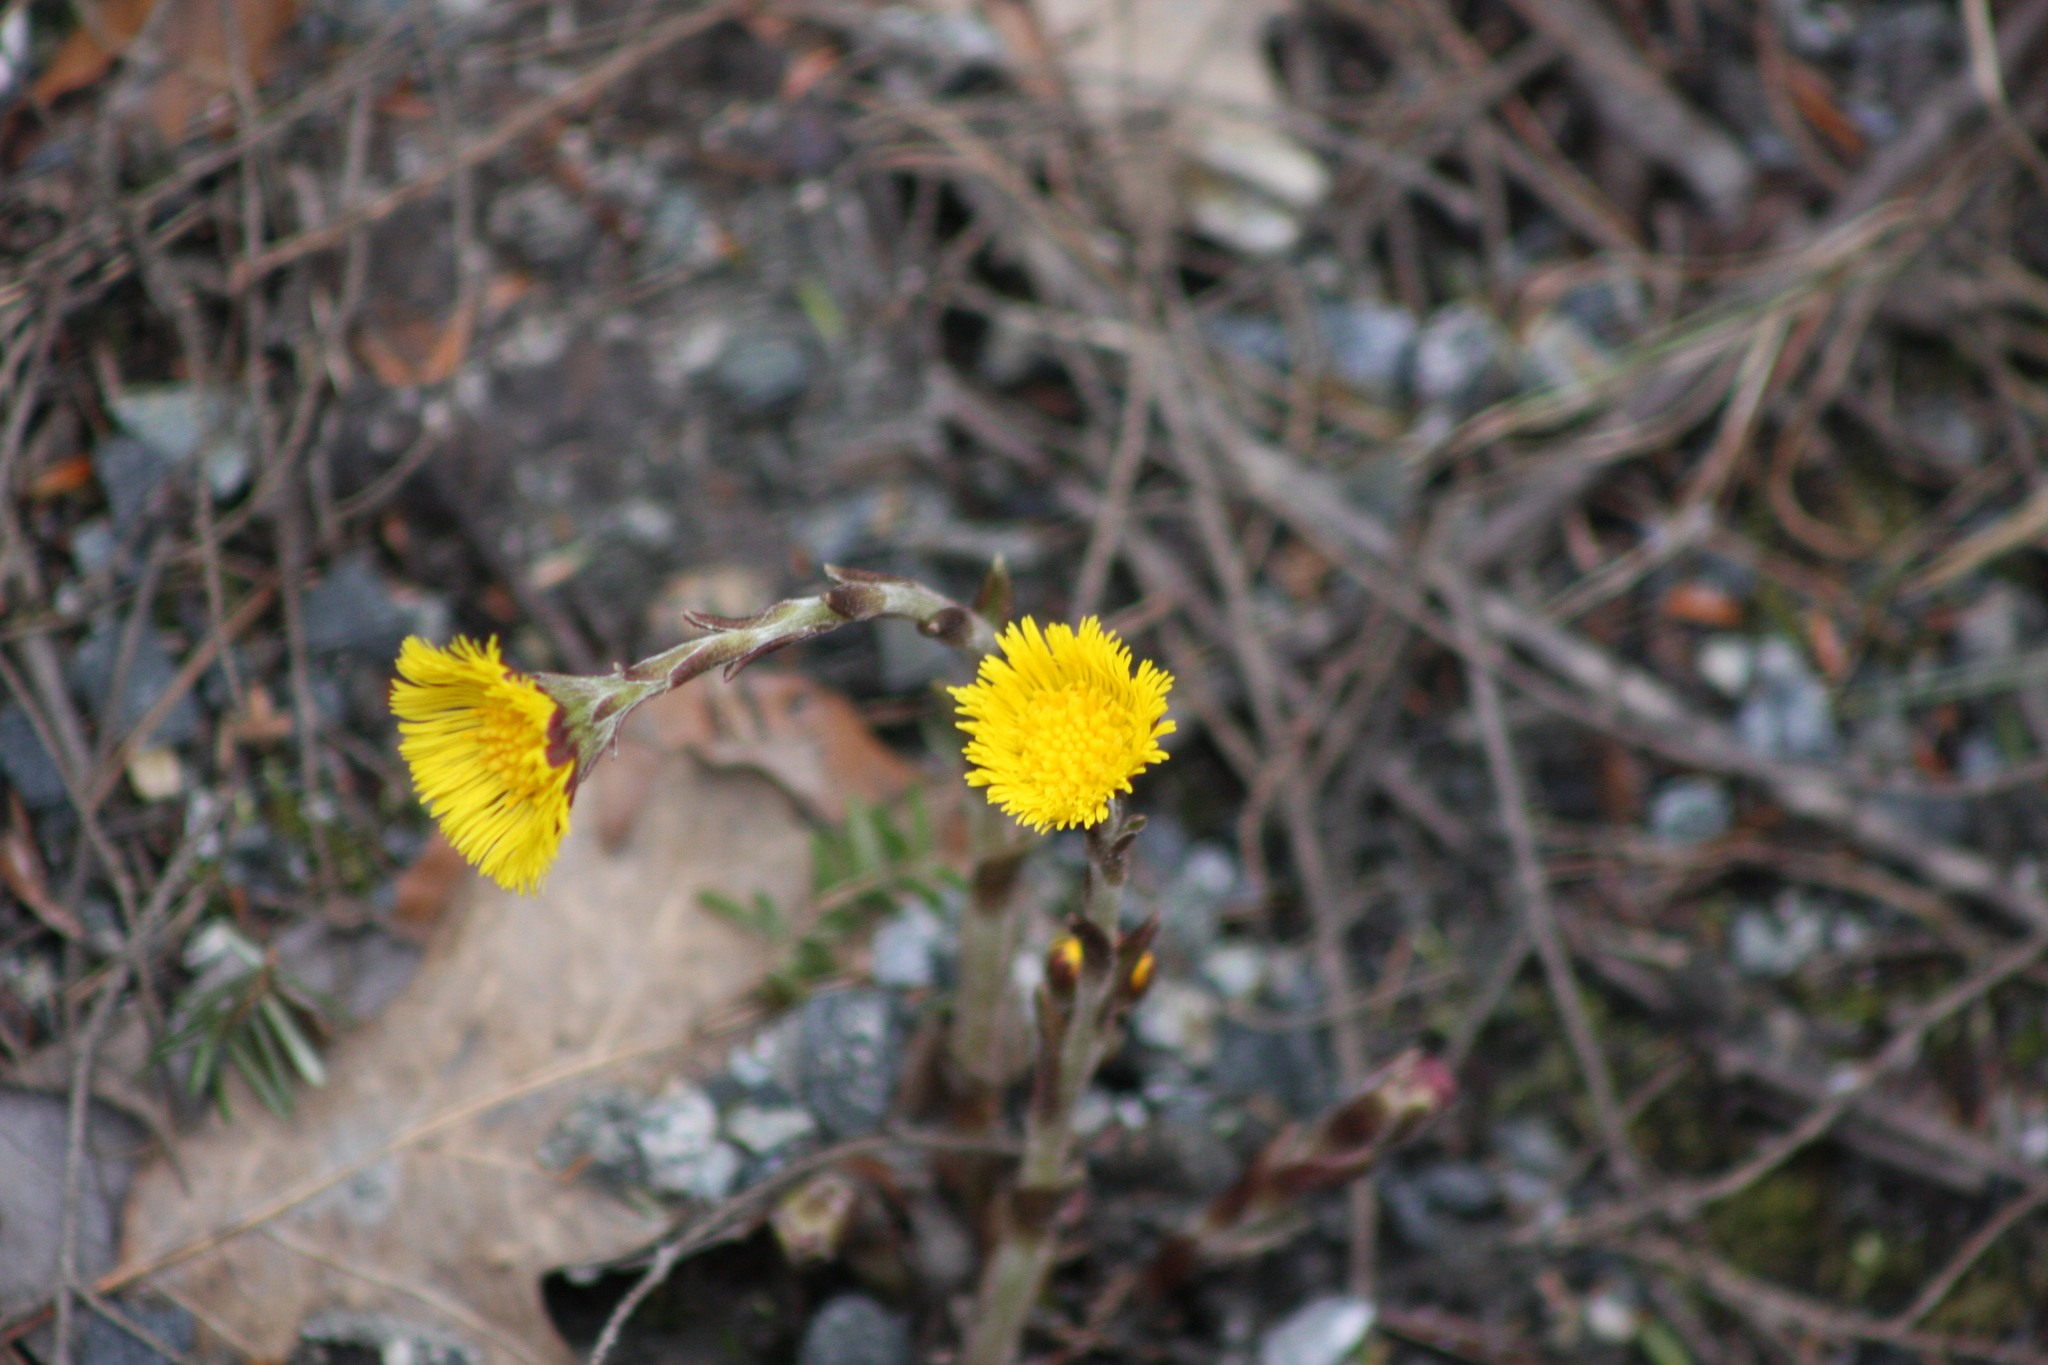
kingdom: Plantae
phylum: Tracheophyta
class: Magnoliopsida
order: Asterales
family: Asteraceae
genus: Tussilago
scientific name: Tussilago farfara
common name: Coltsfoot
